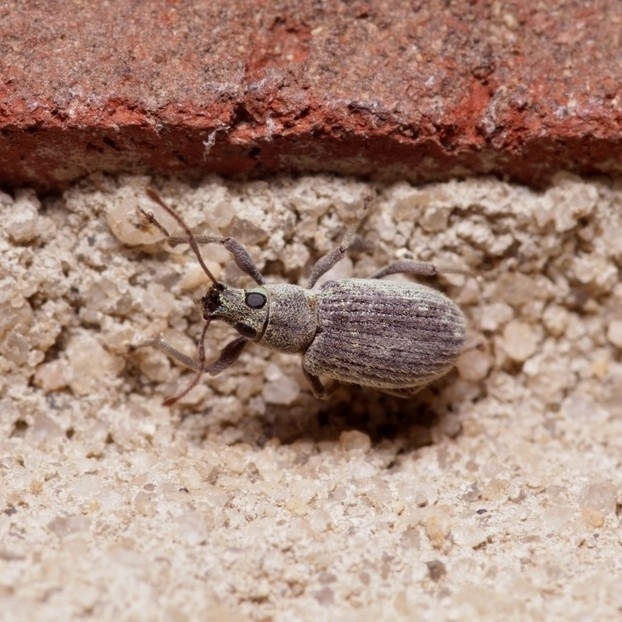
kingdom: Animalia
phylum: Arthropoda
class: Insecta
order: Coleoptera
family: Curculionidae
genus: Cyrtepistomus
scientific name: Cyrtepistomus castaneus
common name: Weevil
